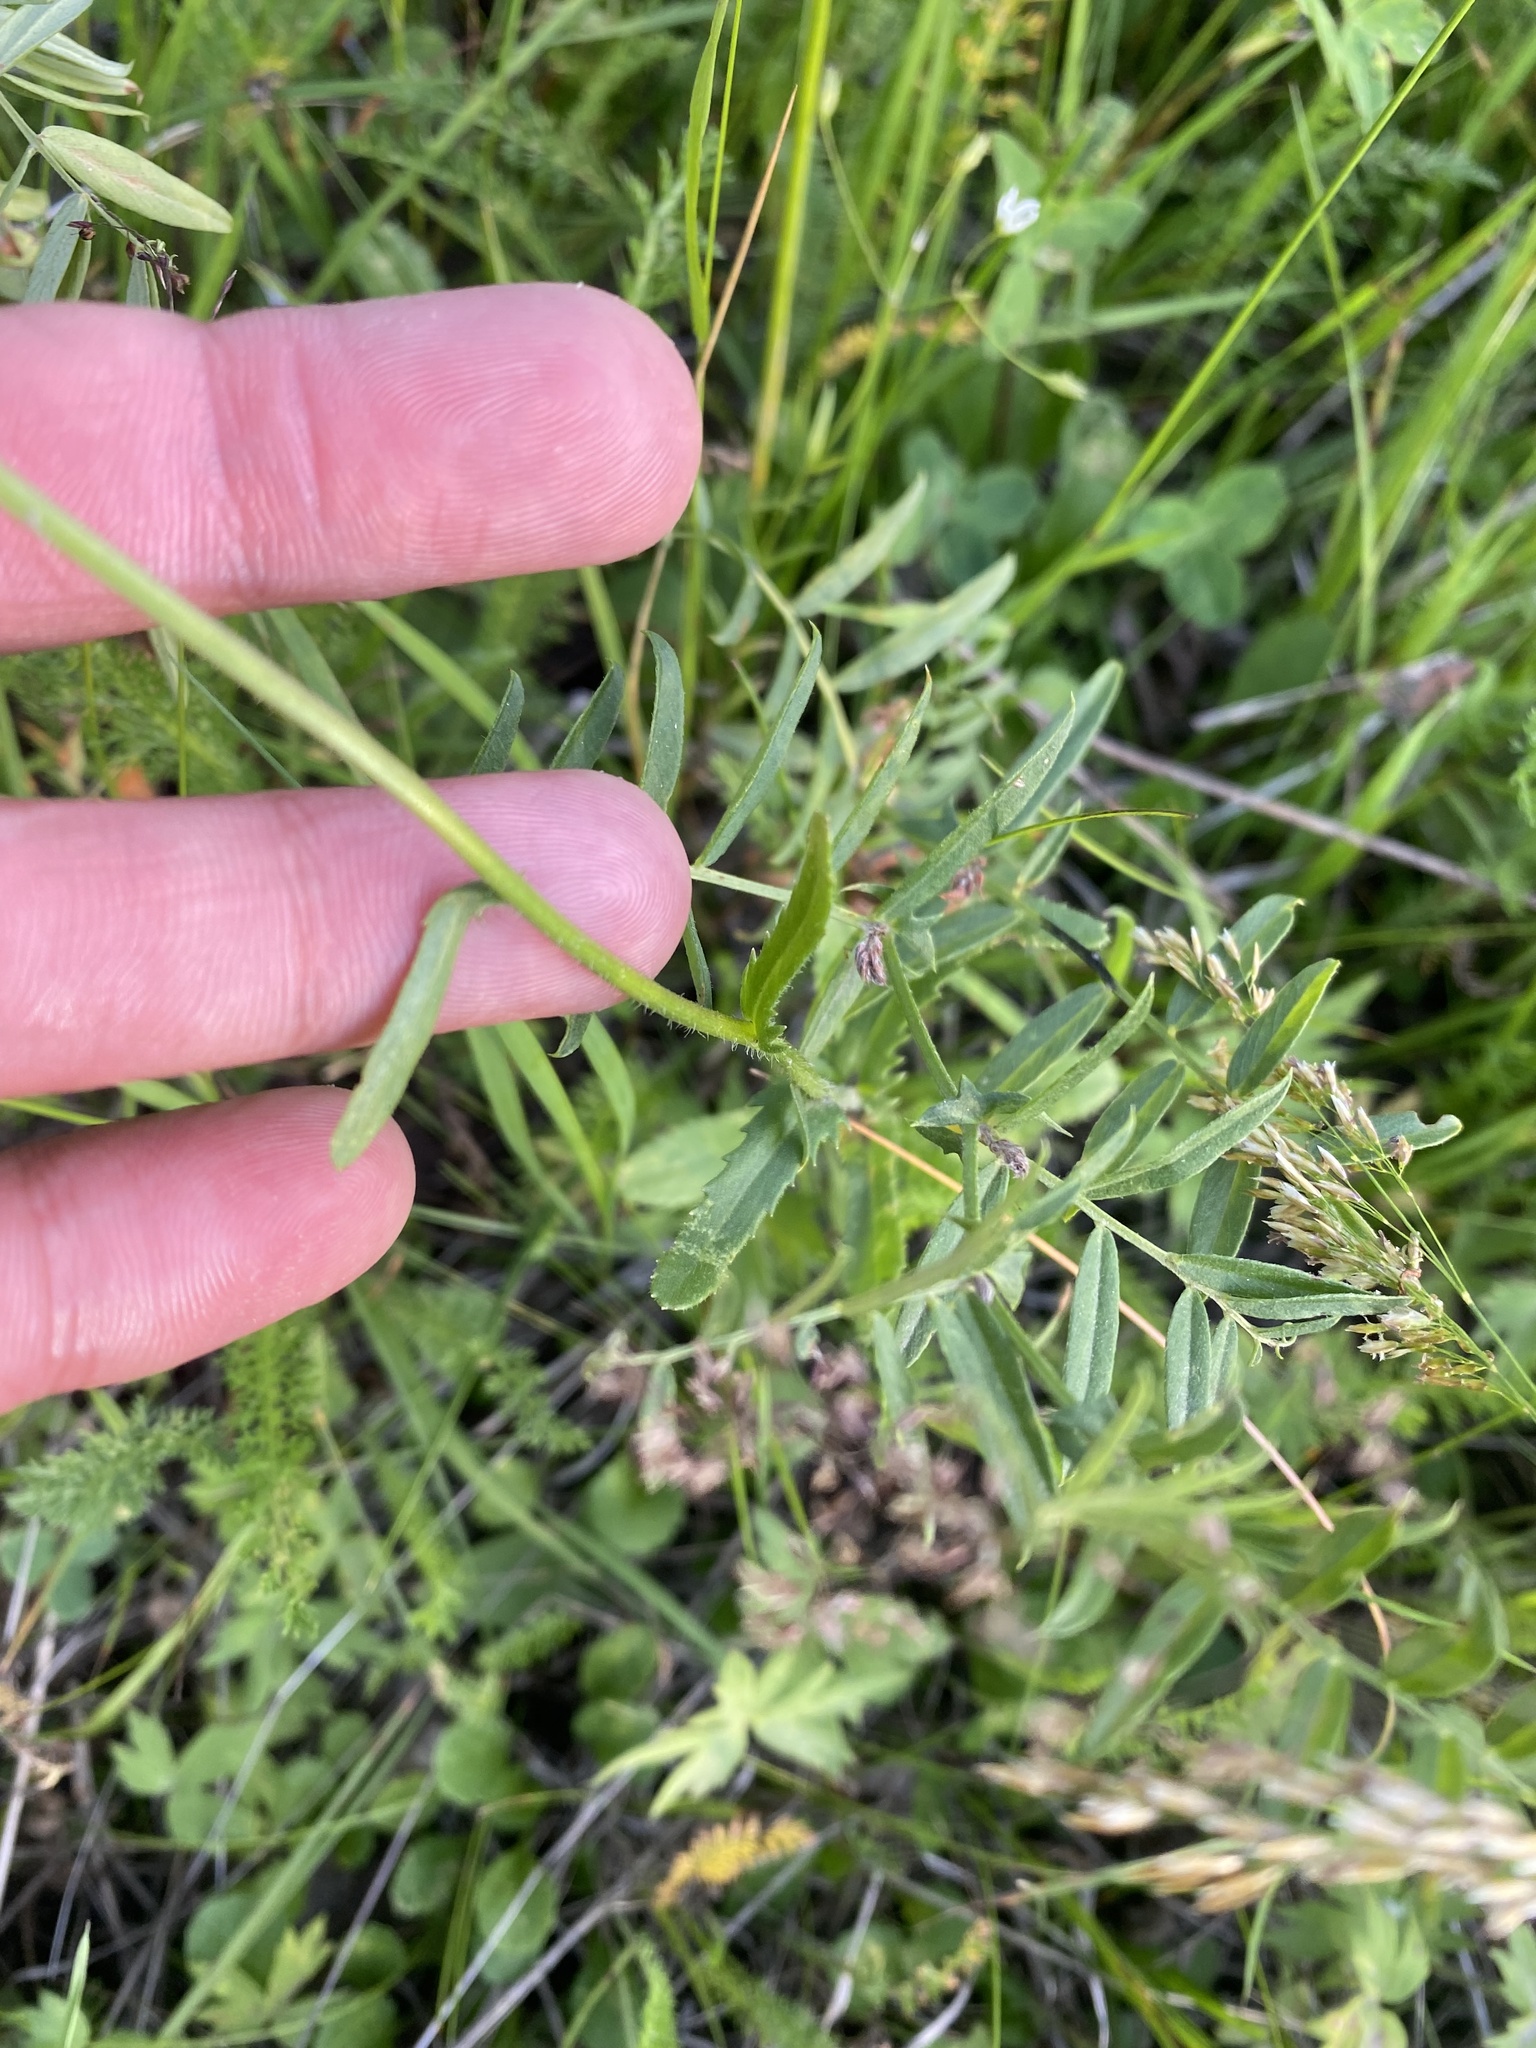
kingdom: Plantae
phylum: Tracheophyta
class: Magnoliopsida
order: Asterales
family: Asteraceae
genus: Leucanthemum
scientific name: Leucanthemum ircutianum
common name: Daisy
